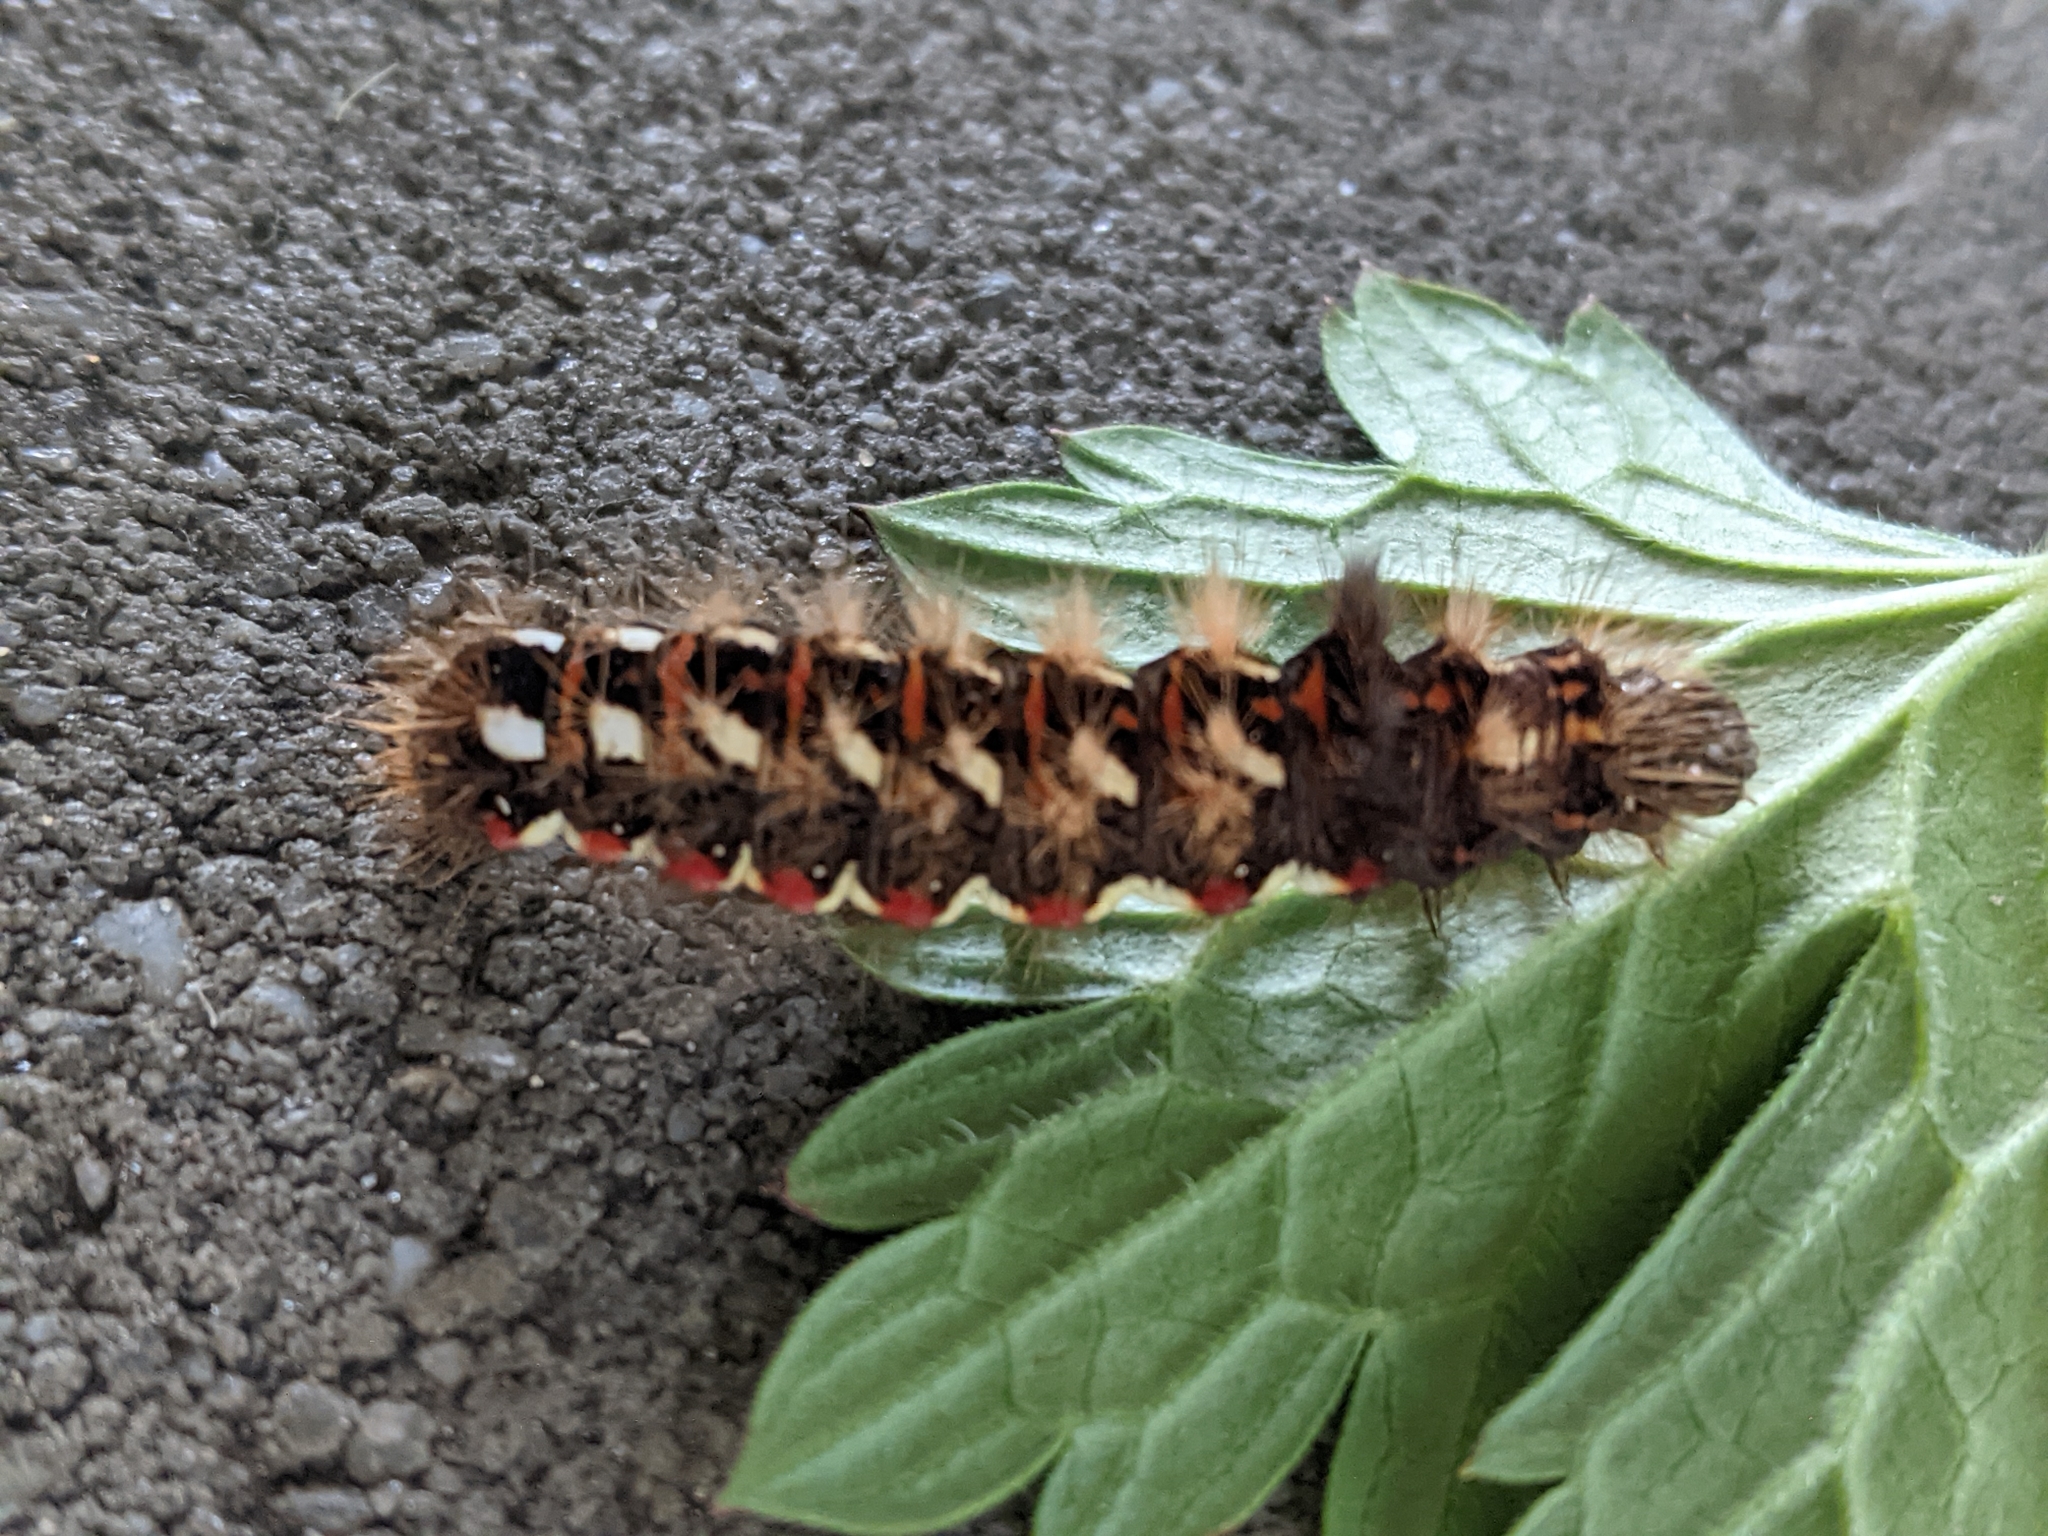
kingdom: Animalia
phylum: Arthropoda
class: Insecta
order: Lepidoptera
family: Noctuidae
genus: Acronicta
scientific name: Acronicta rumicis
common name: Knot grass
